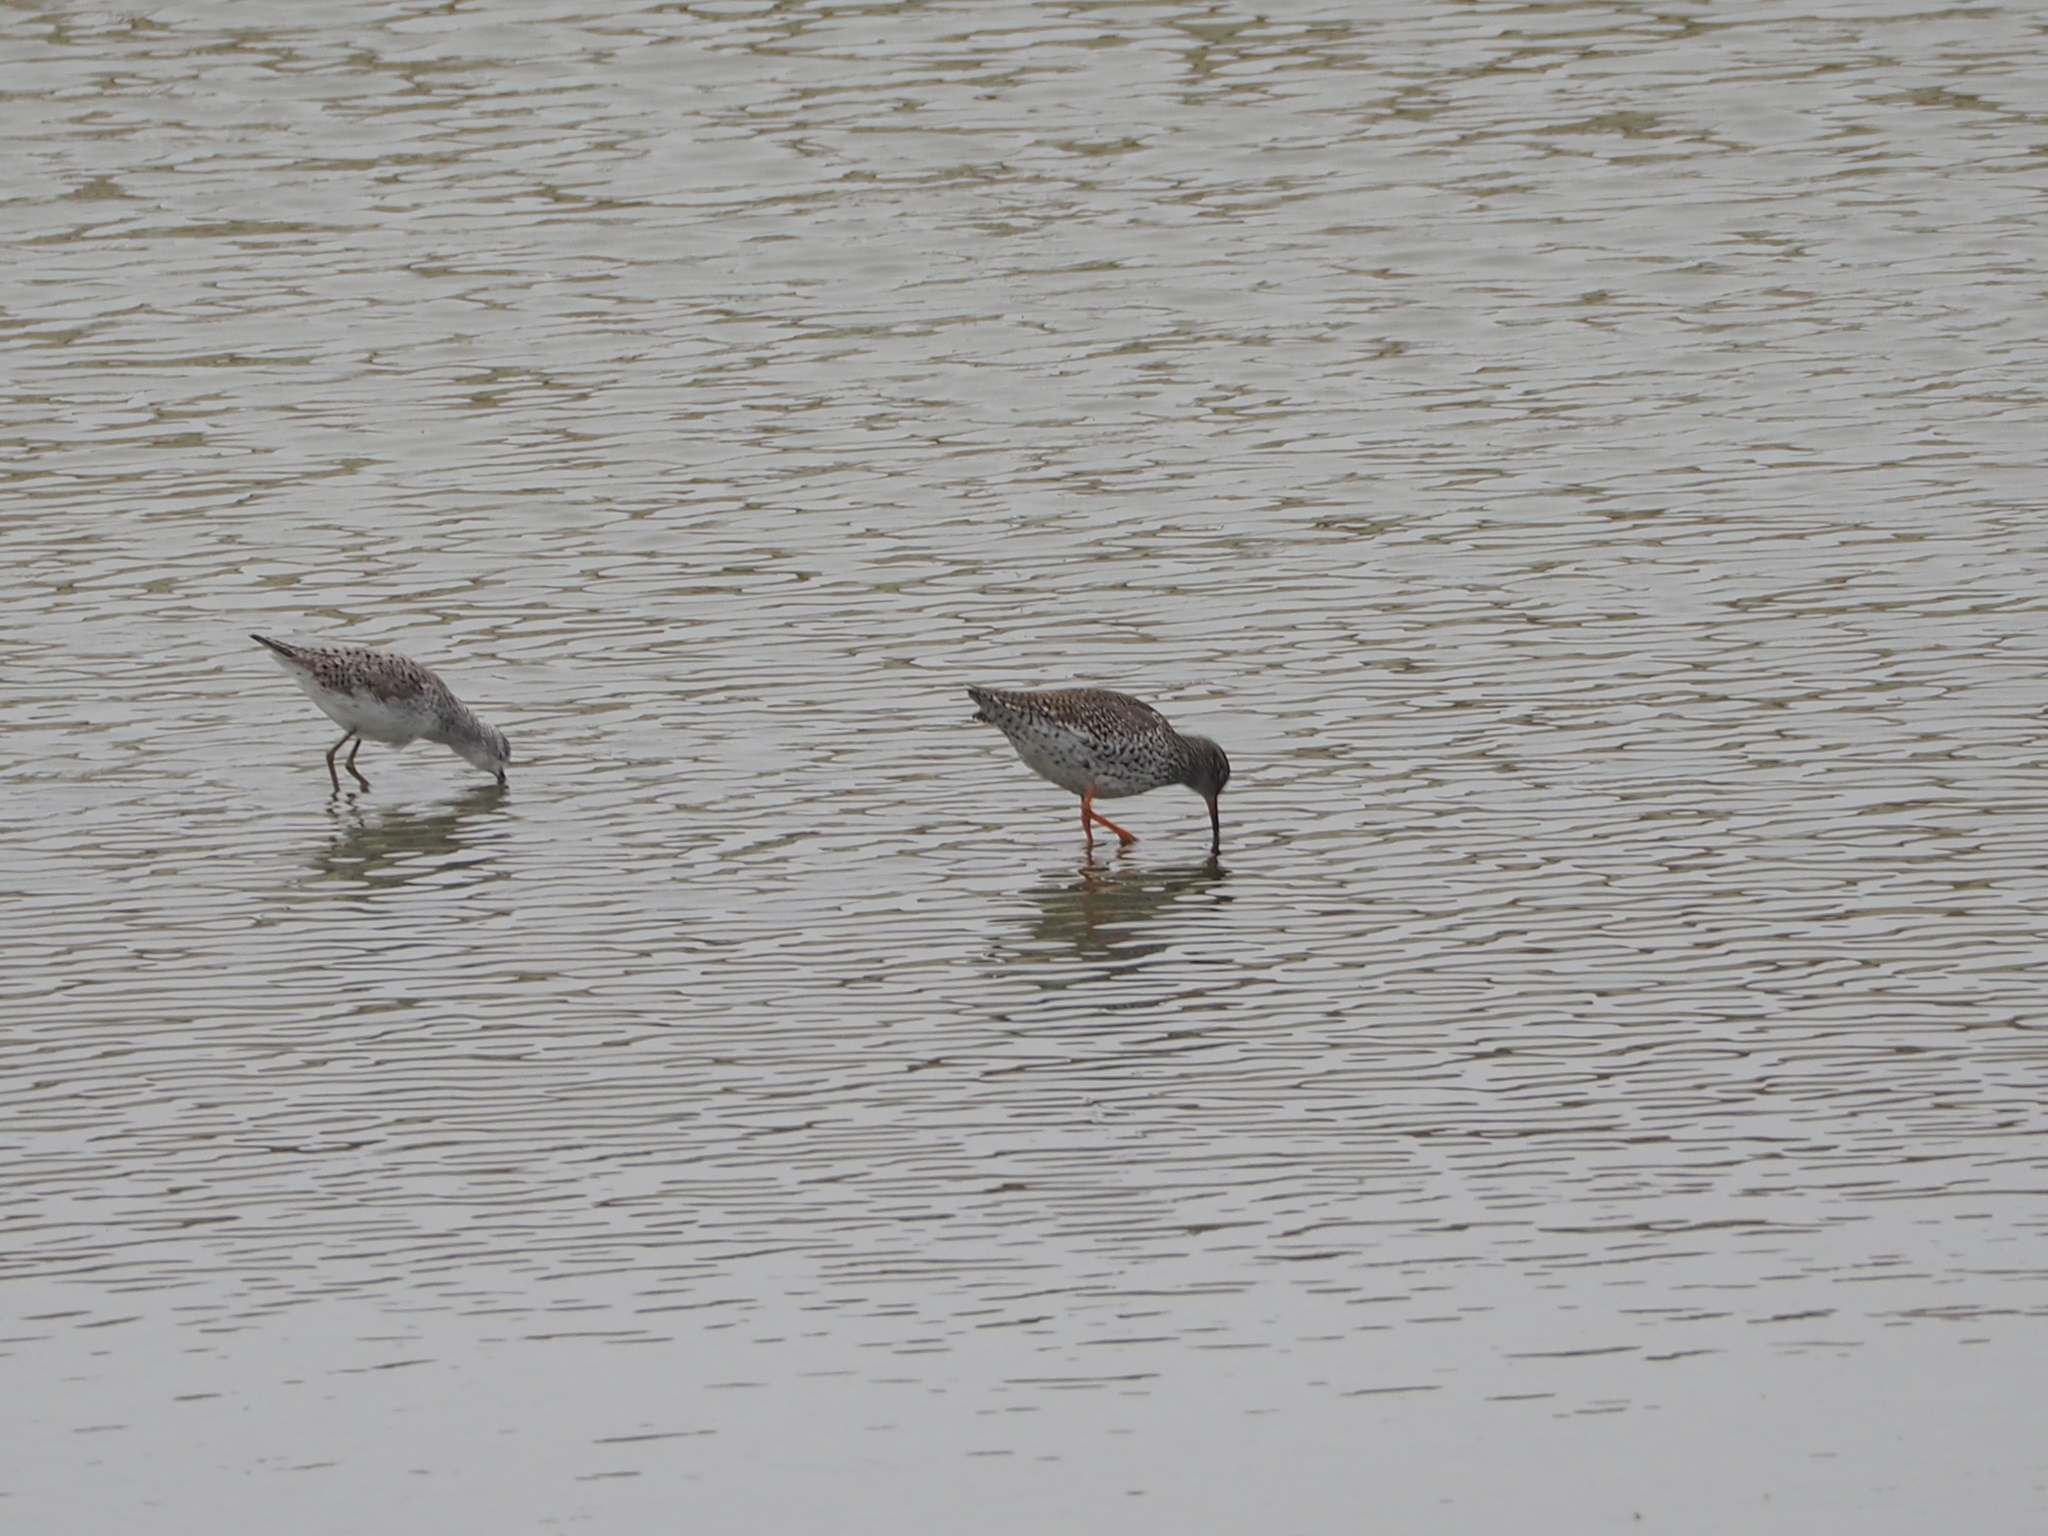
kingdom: Animalia
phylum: Chordata
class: Aves
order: Charadriiformes
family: Scolopacidae
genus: Tringa
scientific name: Tringa totanus
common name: Common redshank
